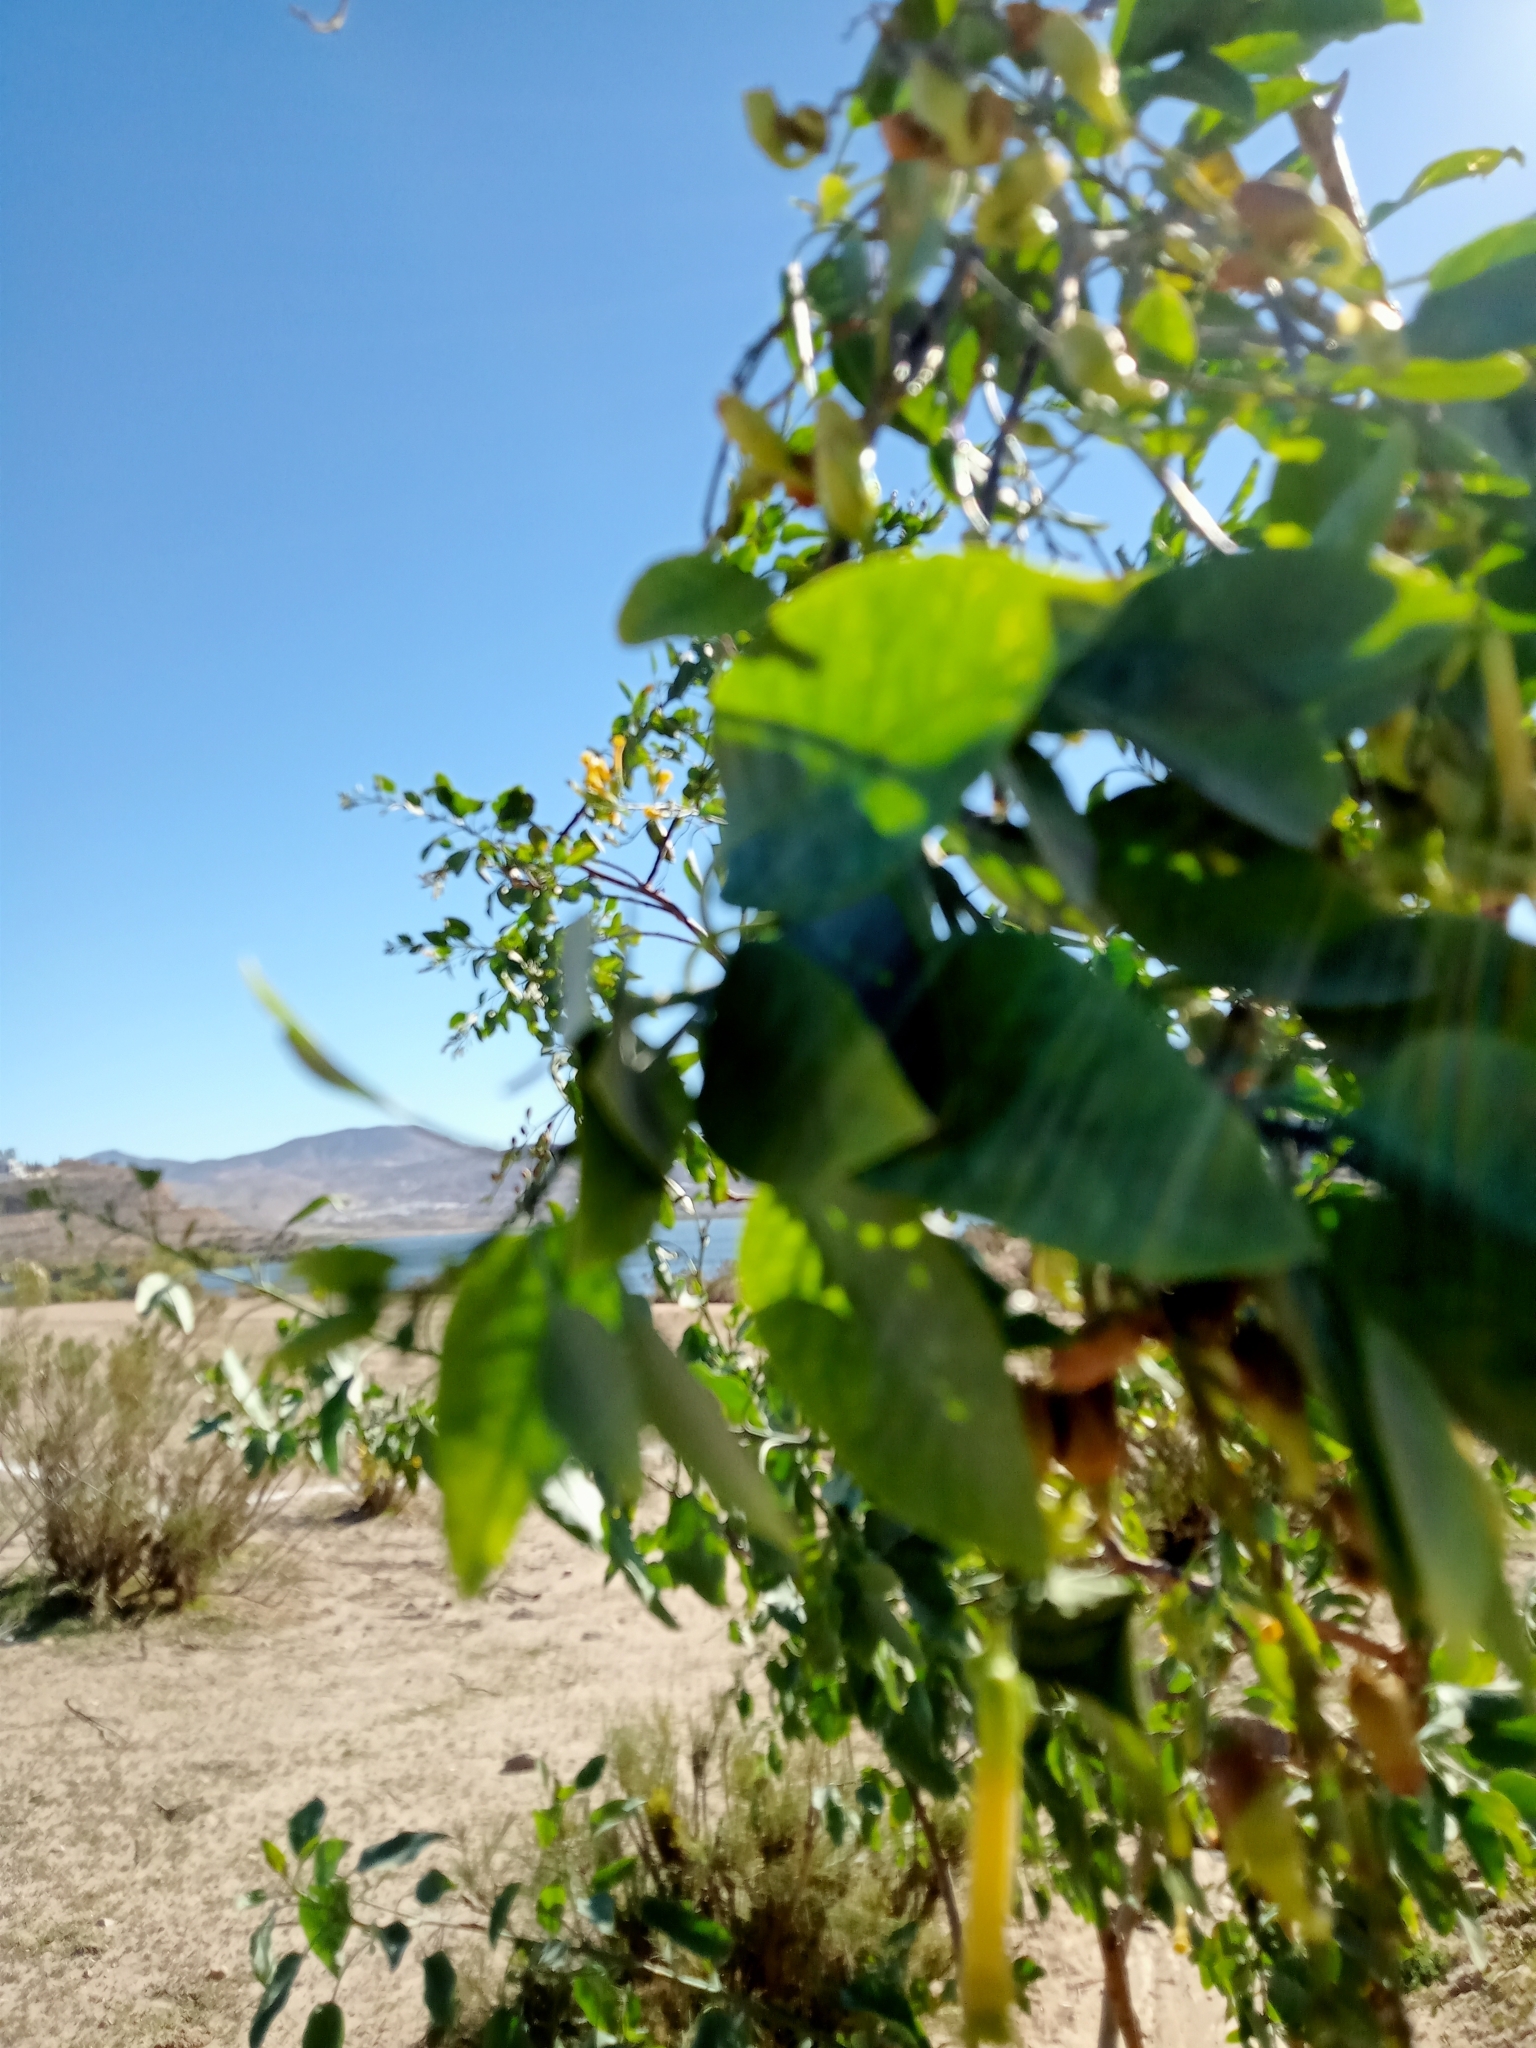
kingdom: Plantae
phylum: Tracheophyta
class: Magnoliopsida
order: Solanales
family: Solanaceae
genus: Nicotiana
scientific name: Nicotiana glauca
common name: Tree tobacco
